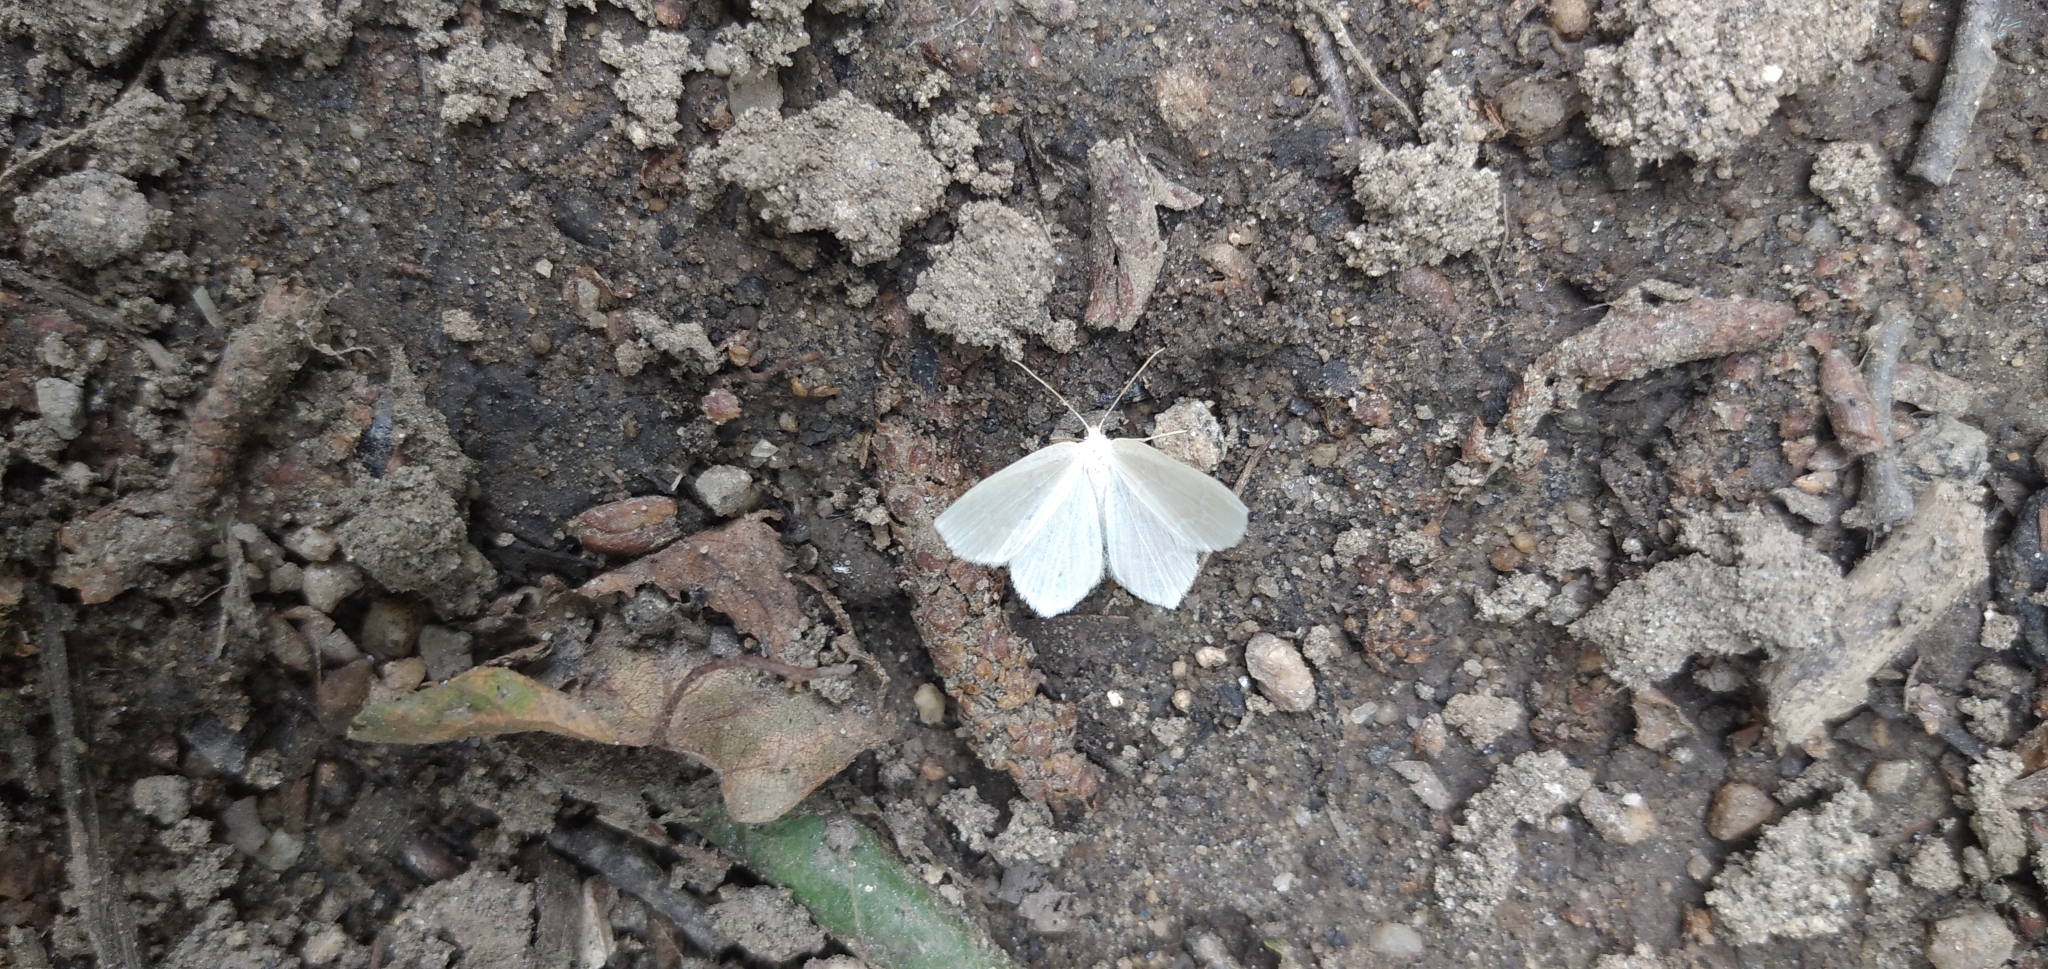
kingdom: Animalia
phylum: Arthropoda
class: Insecta
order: Lepidoptera
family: Geometridae
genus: Jodis
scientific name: Jodis putata
